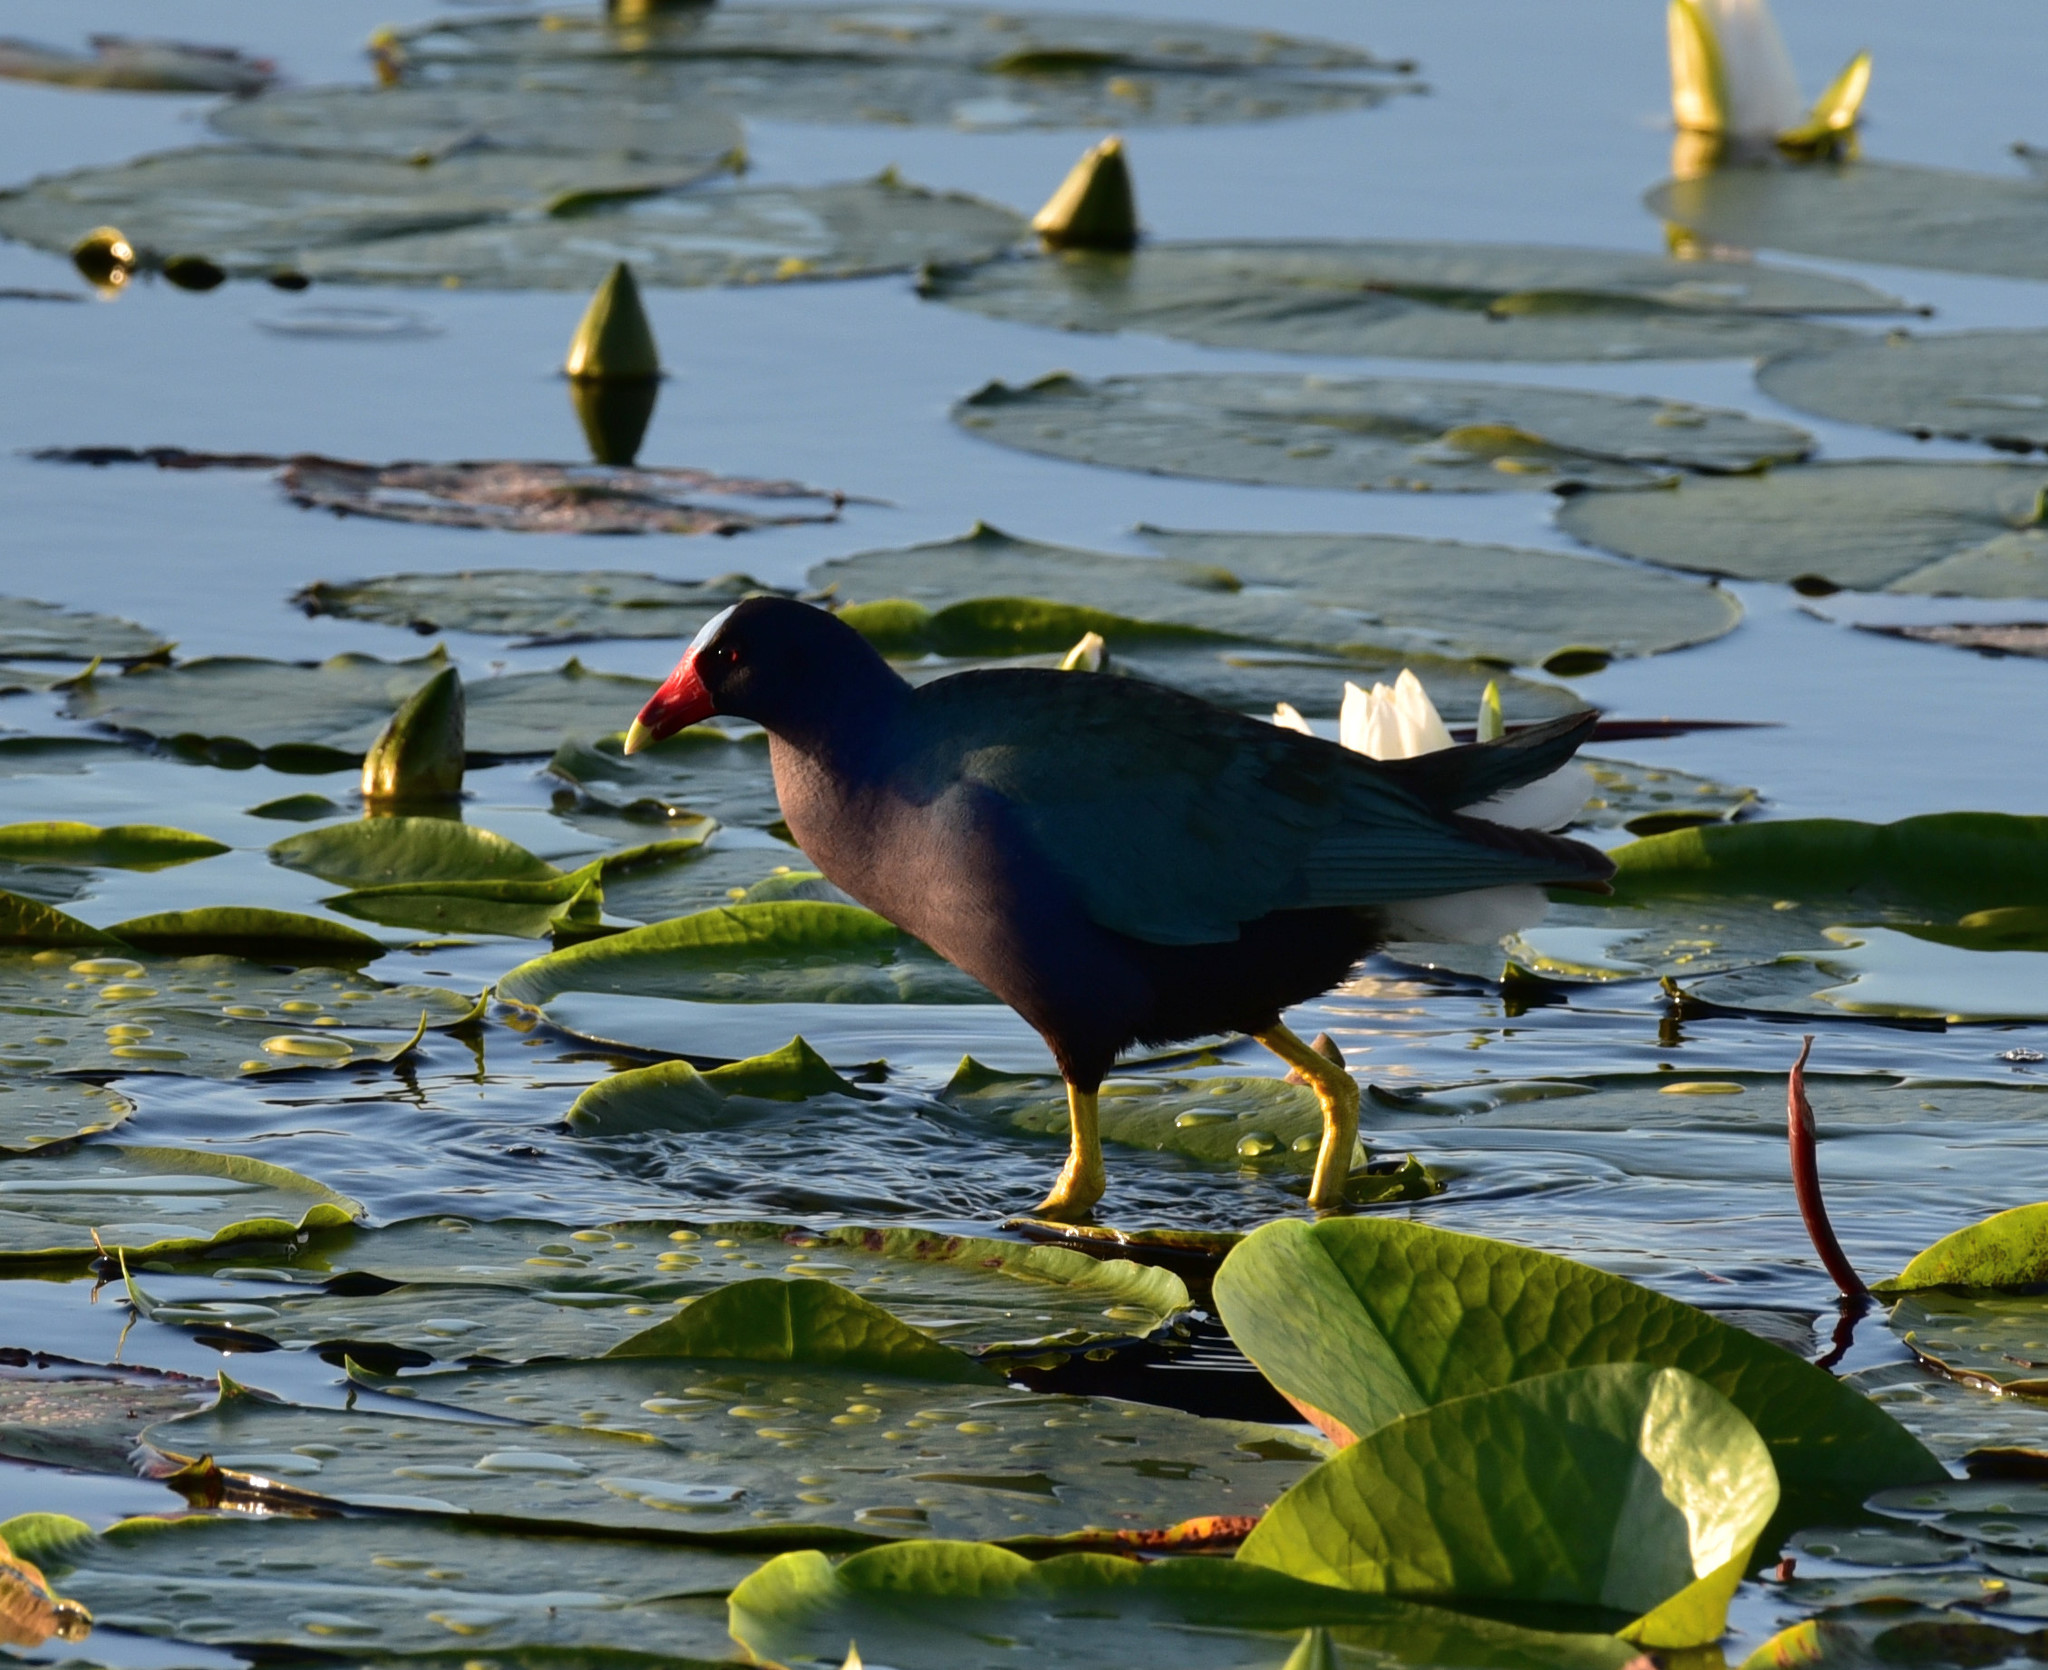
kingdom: Animalia
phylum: Chordata
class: Aves
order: Gruiformes
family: Rallidae
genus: Porphyrio
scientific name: Porphyrio martinica
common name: Purple gallinule
